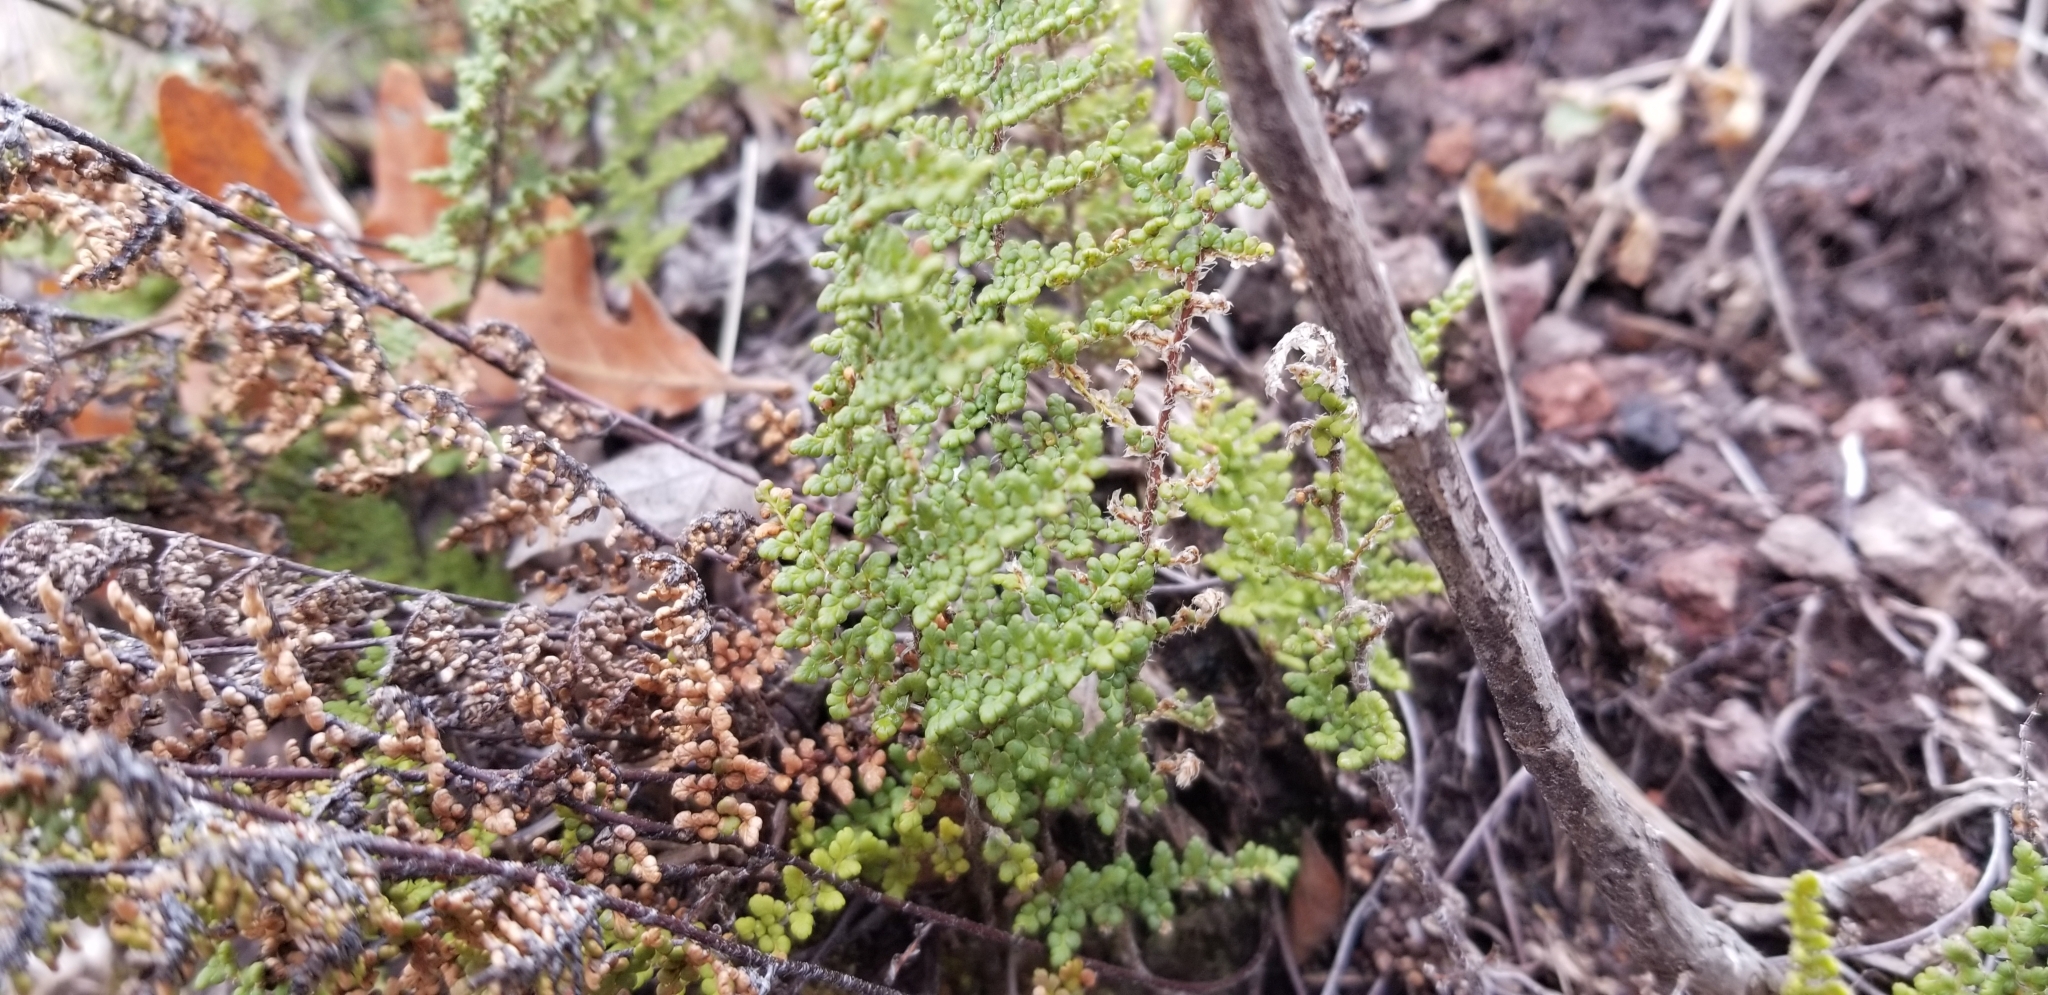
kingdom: Plantae
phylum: Tracheophyta
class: Polypodiopsida
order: Polypodiales
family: Pteridaceae
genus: Myriopteris
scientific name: Myriopteris fendleri
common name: Fendler's lip fern
